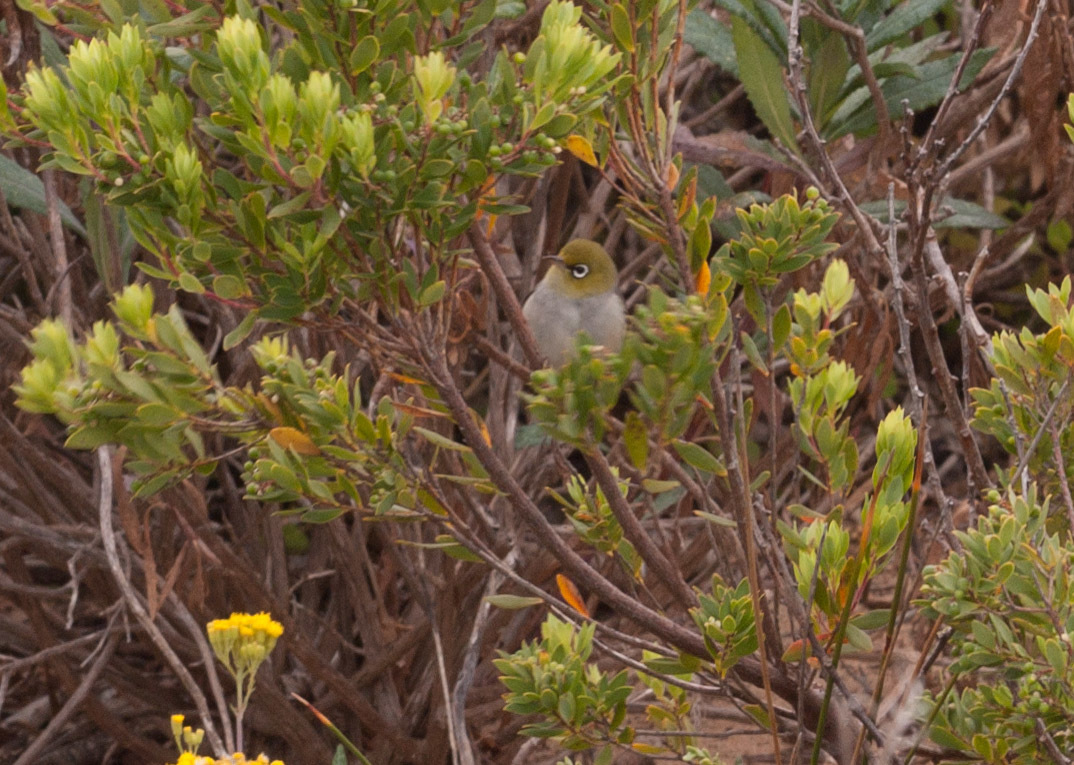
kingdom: Animalia
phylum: Chordata
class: Aves
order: Passeriformes
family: Zosteropidae
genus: Zosterops
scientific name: Zosterops lateralis
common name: Silvereye
